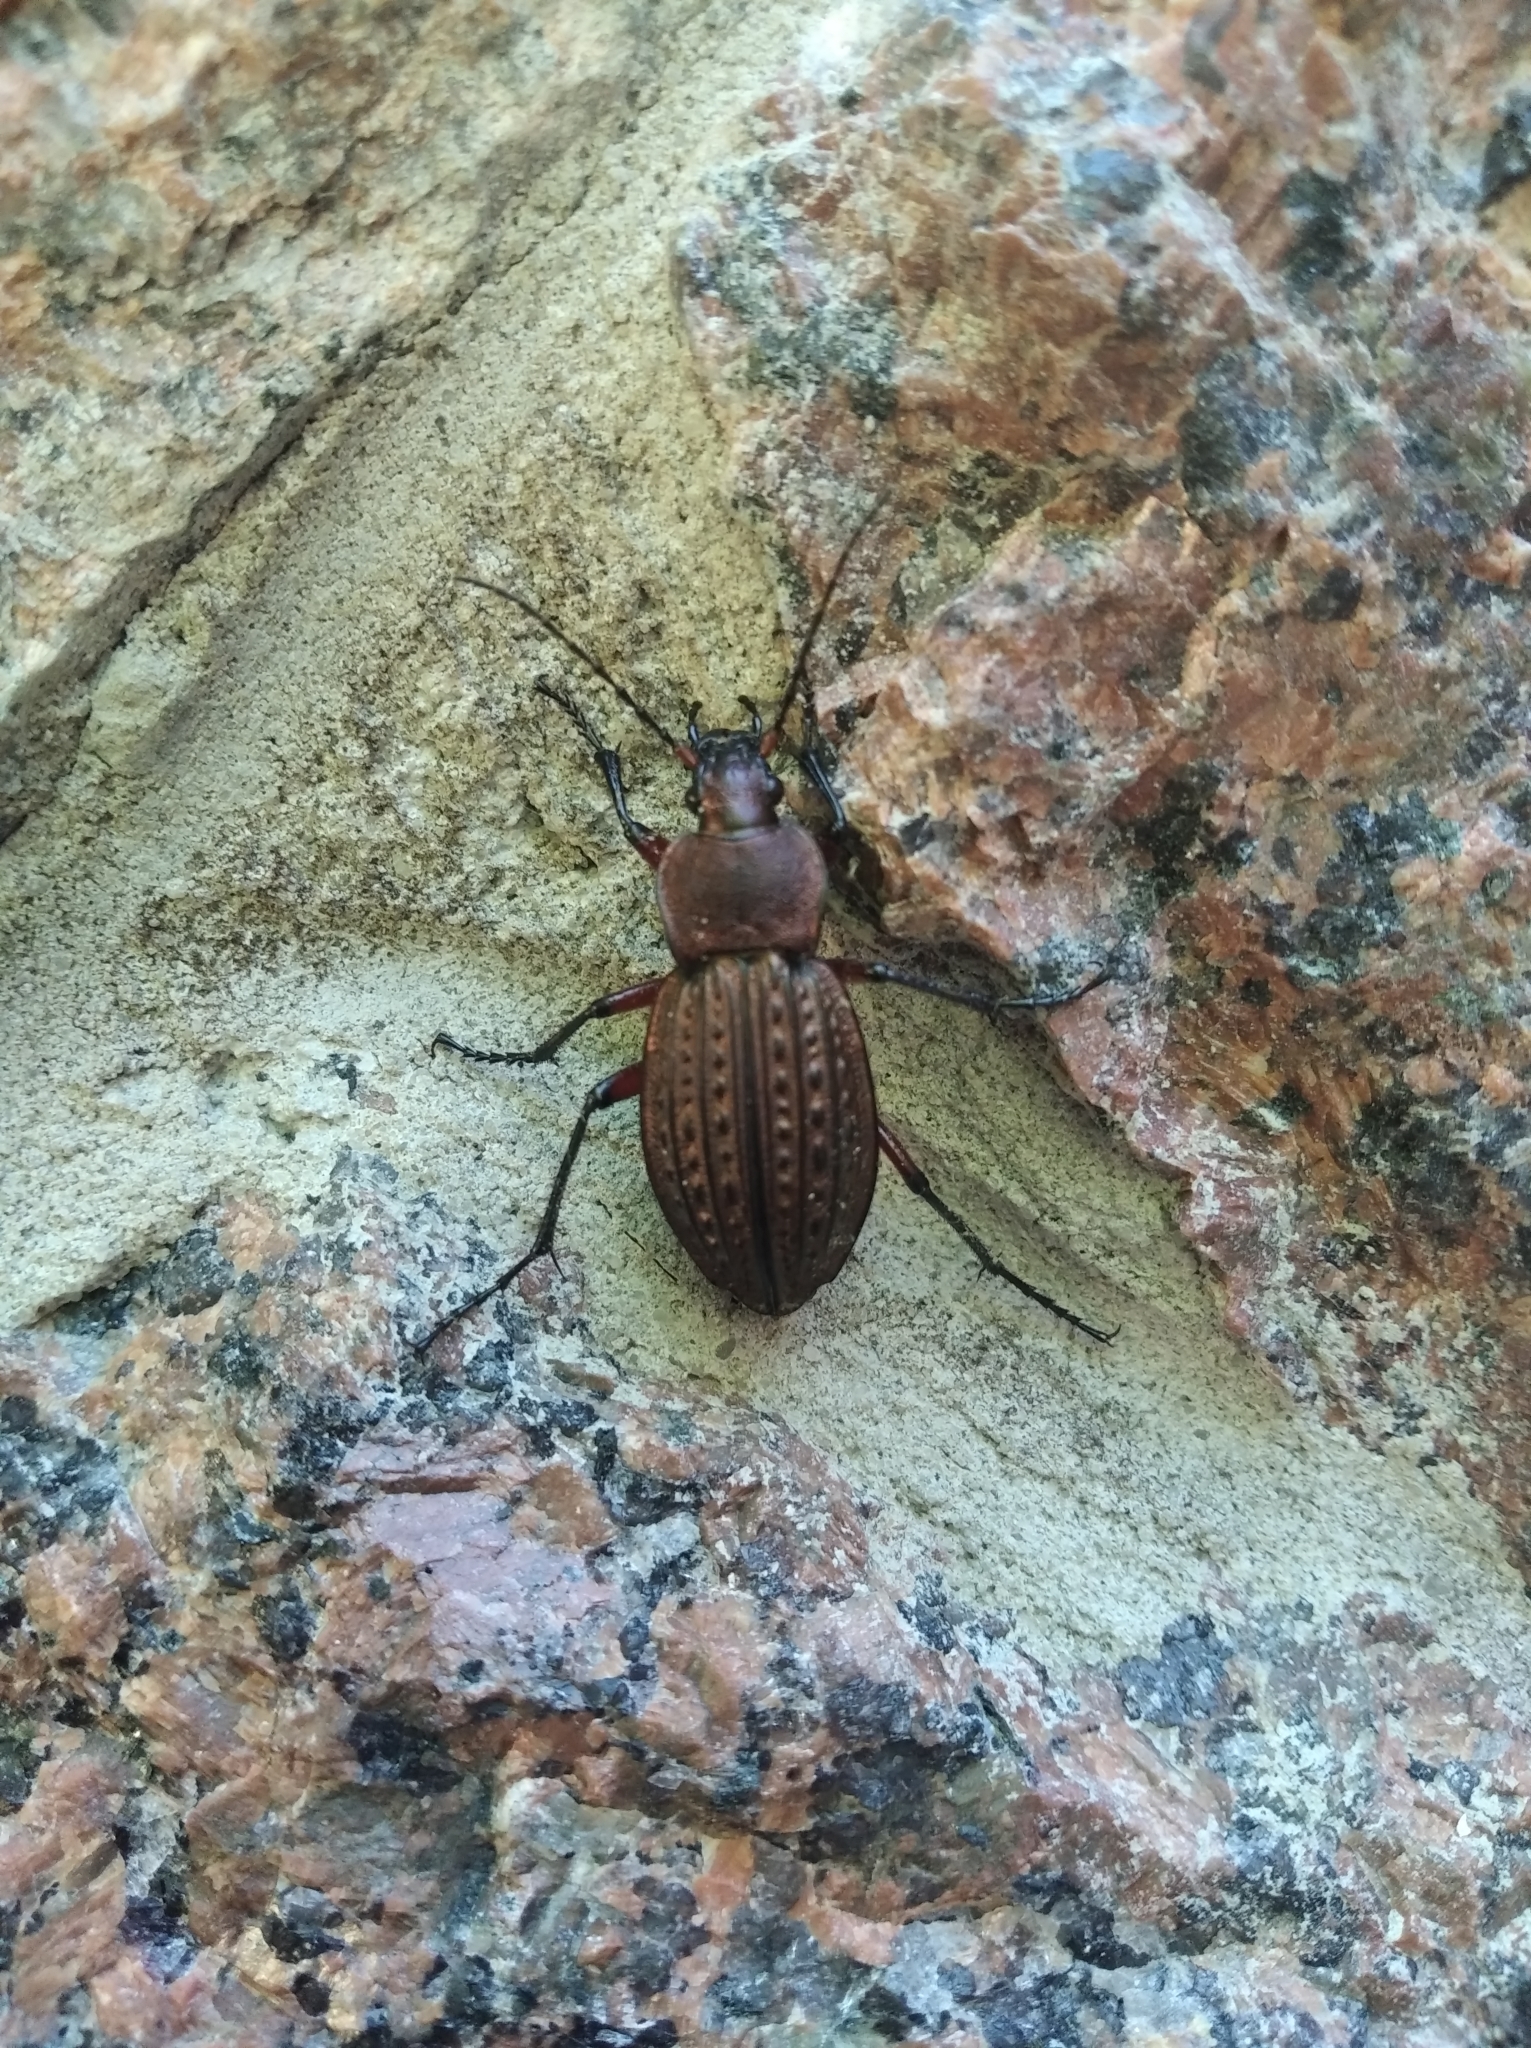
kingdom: Animalia
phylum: Arthropoda
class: Insecta
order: Coleoptera
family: Carabidae
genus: Carabus
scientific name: Carabus cancellatus
